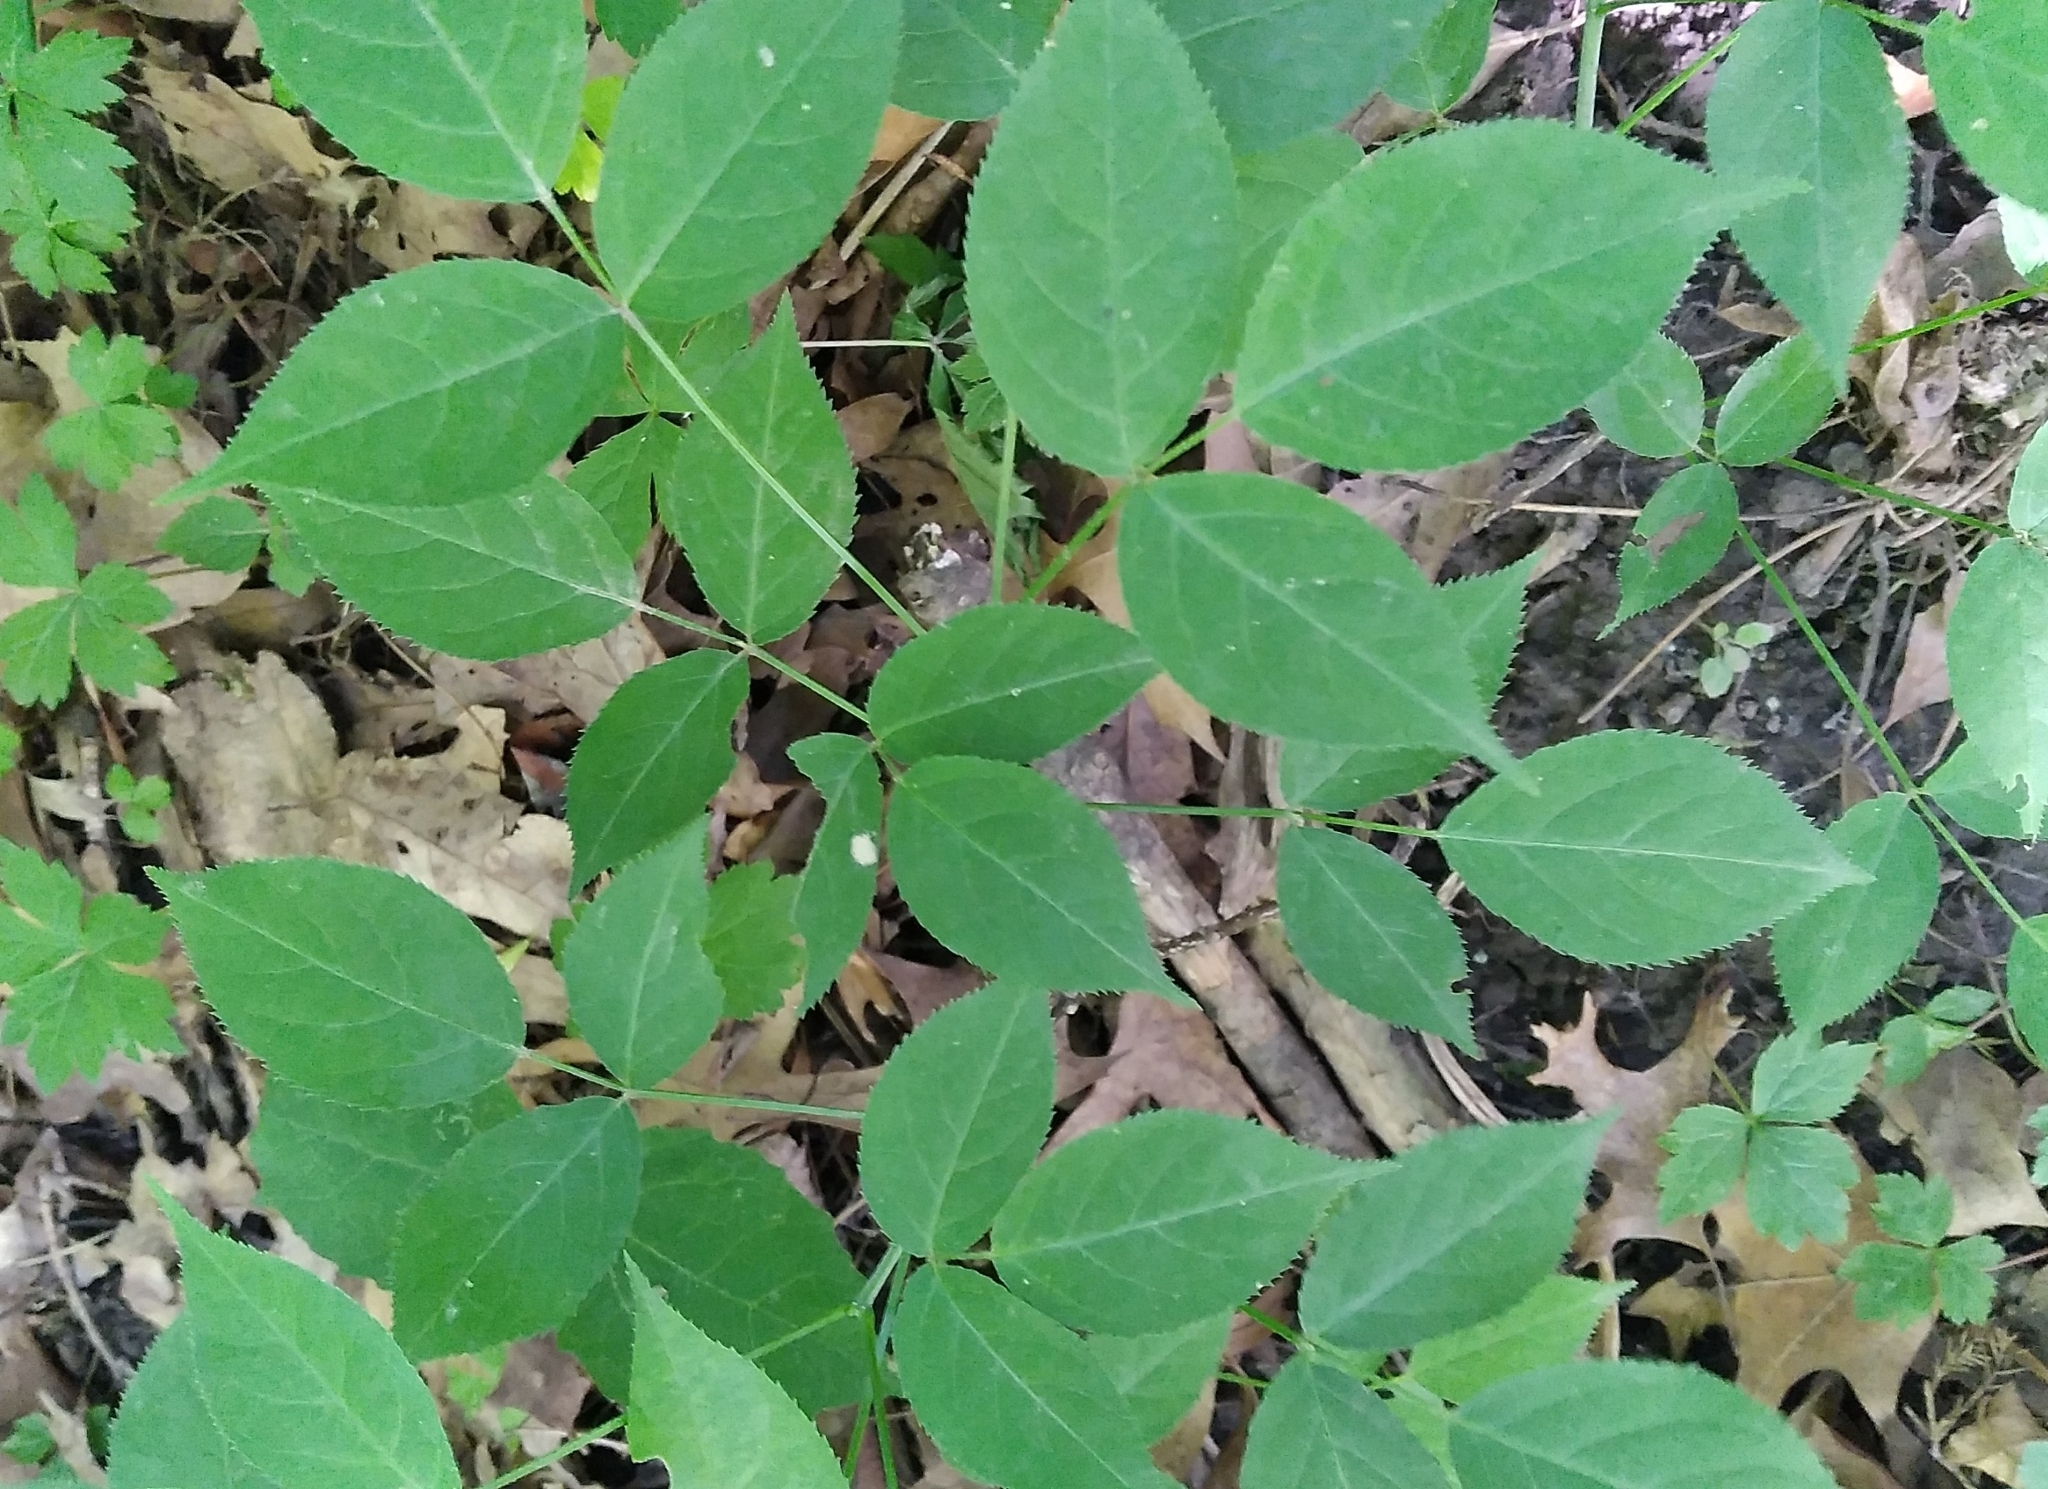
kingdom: Plantae
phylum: Tracheophyta
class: Magnoliopsida
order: Crossosomatales
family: Staphyleaceae
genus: Staphylea
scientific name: Staphylea trifolia
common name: American bladdernut
